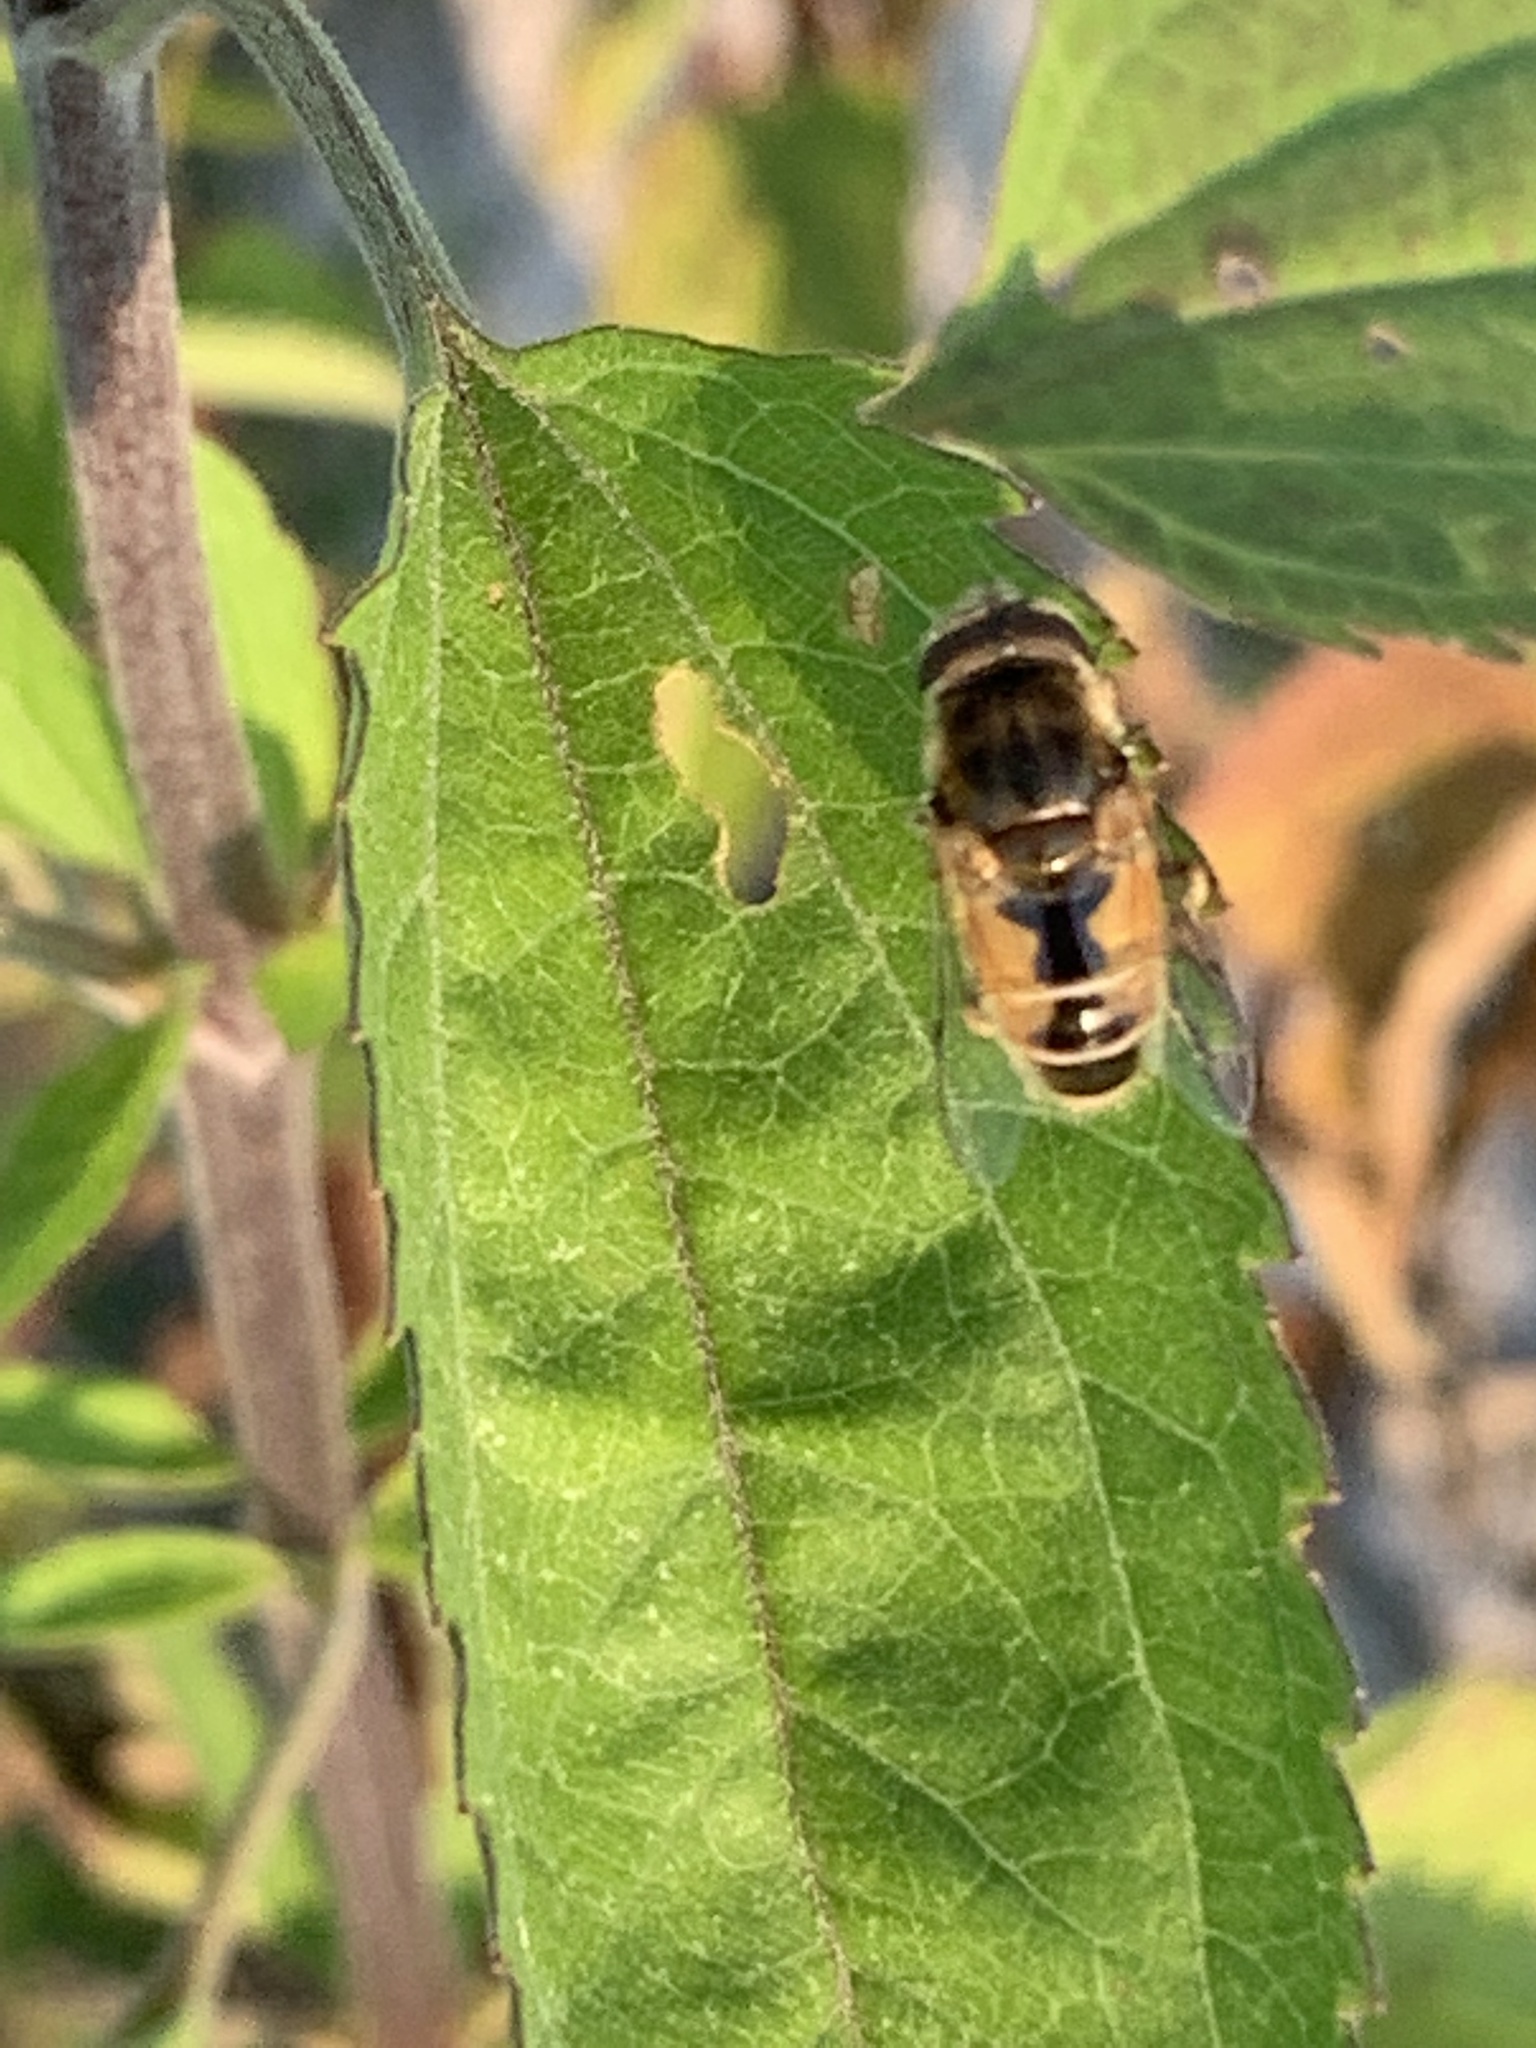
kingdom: Animalia
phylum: Arthropoda
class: Insecta
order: Diptera
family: Syrphidae
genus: Eristalis
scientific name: Eristalis arbustorum
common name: Hover fly
